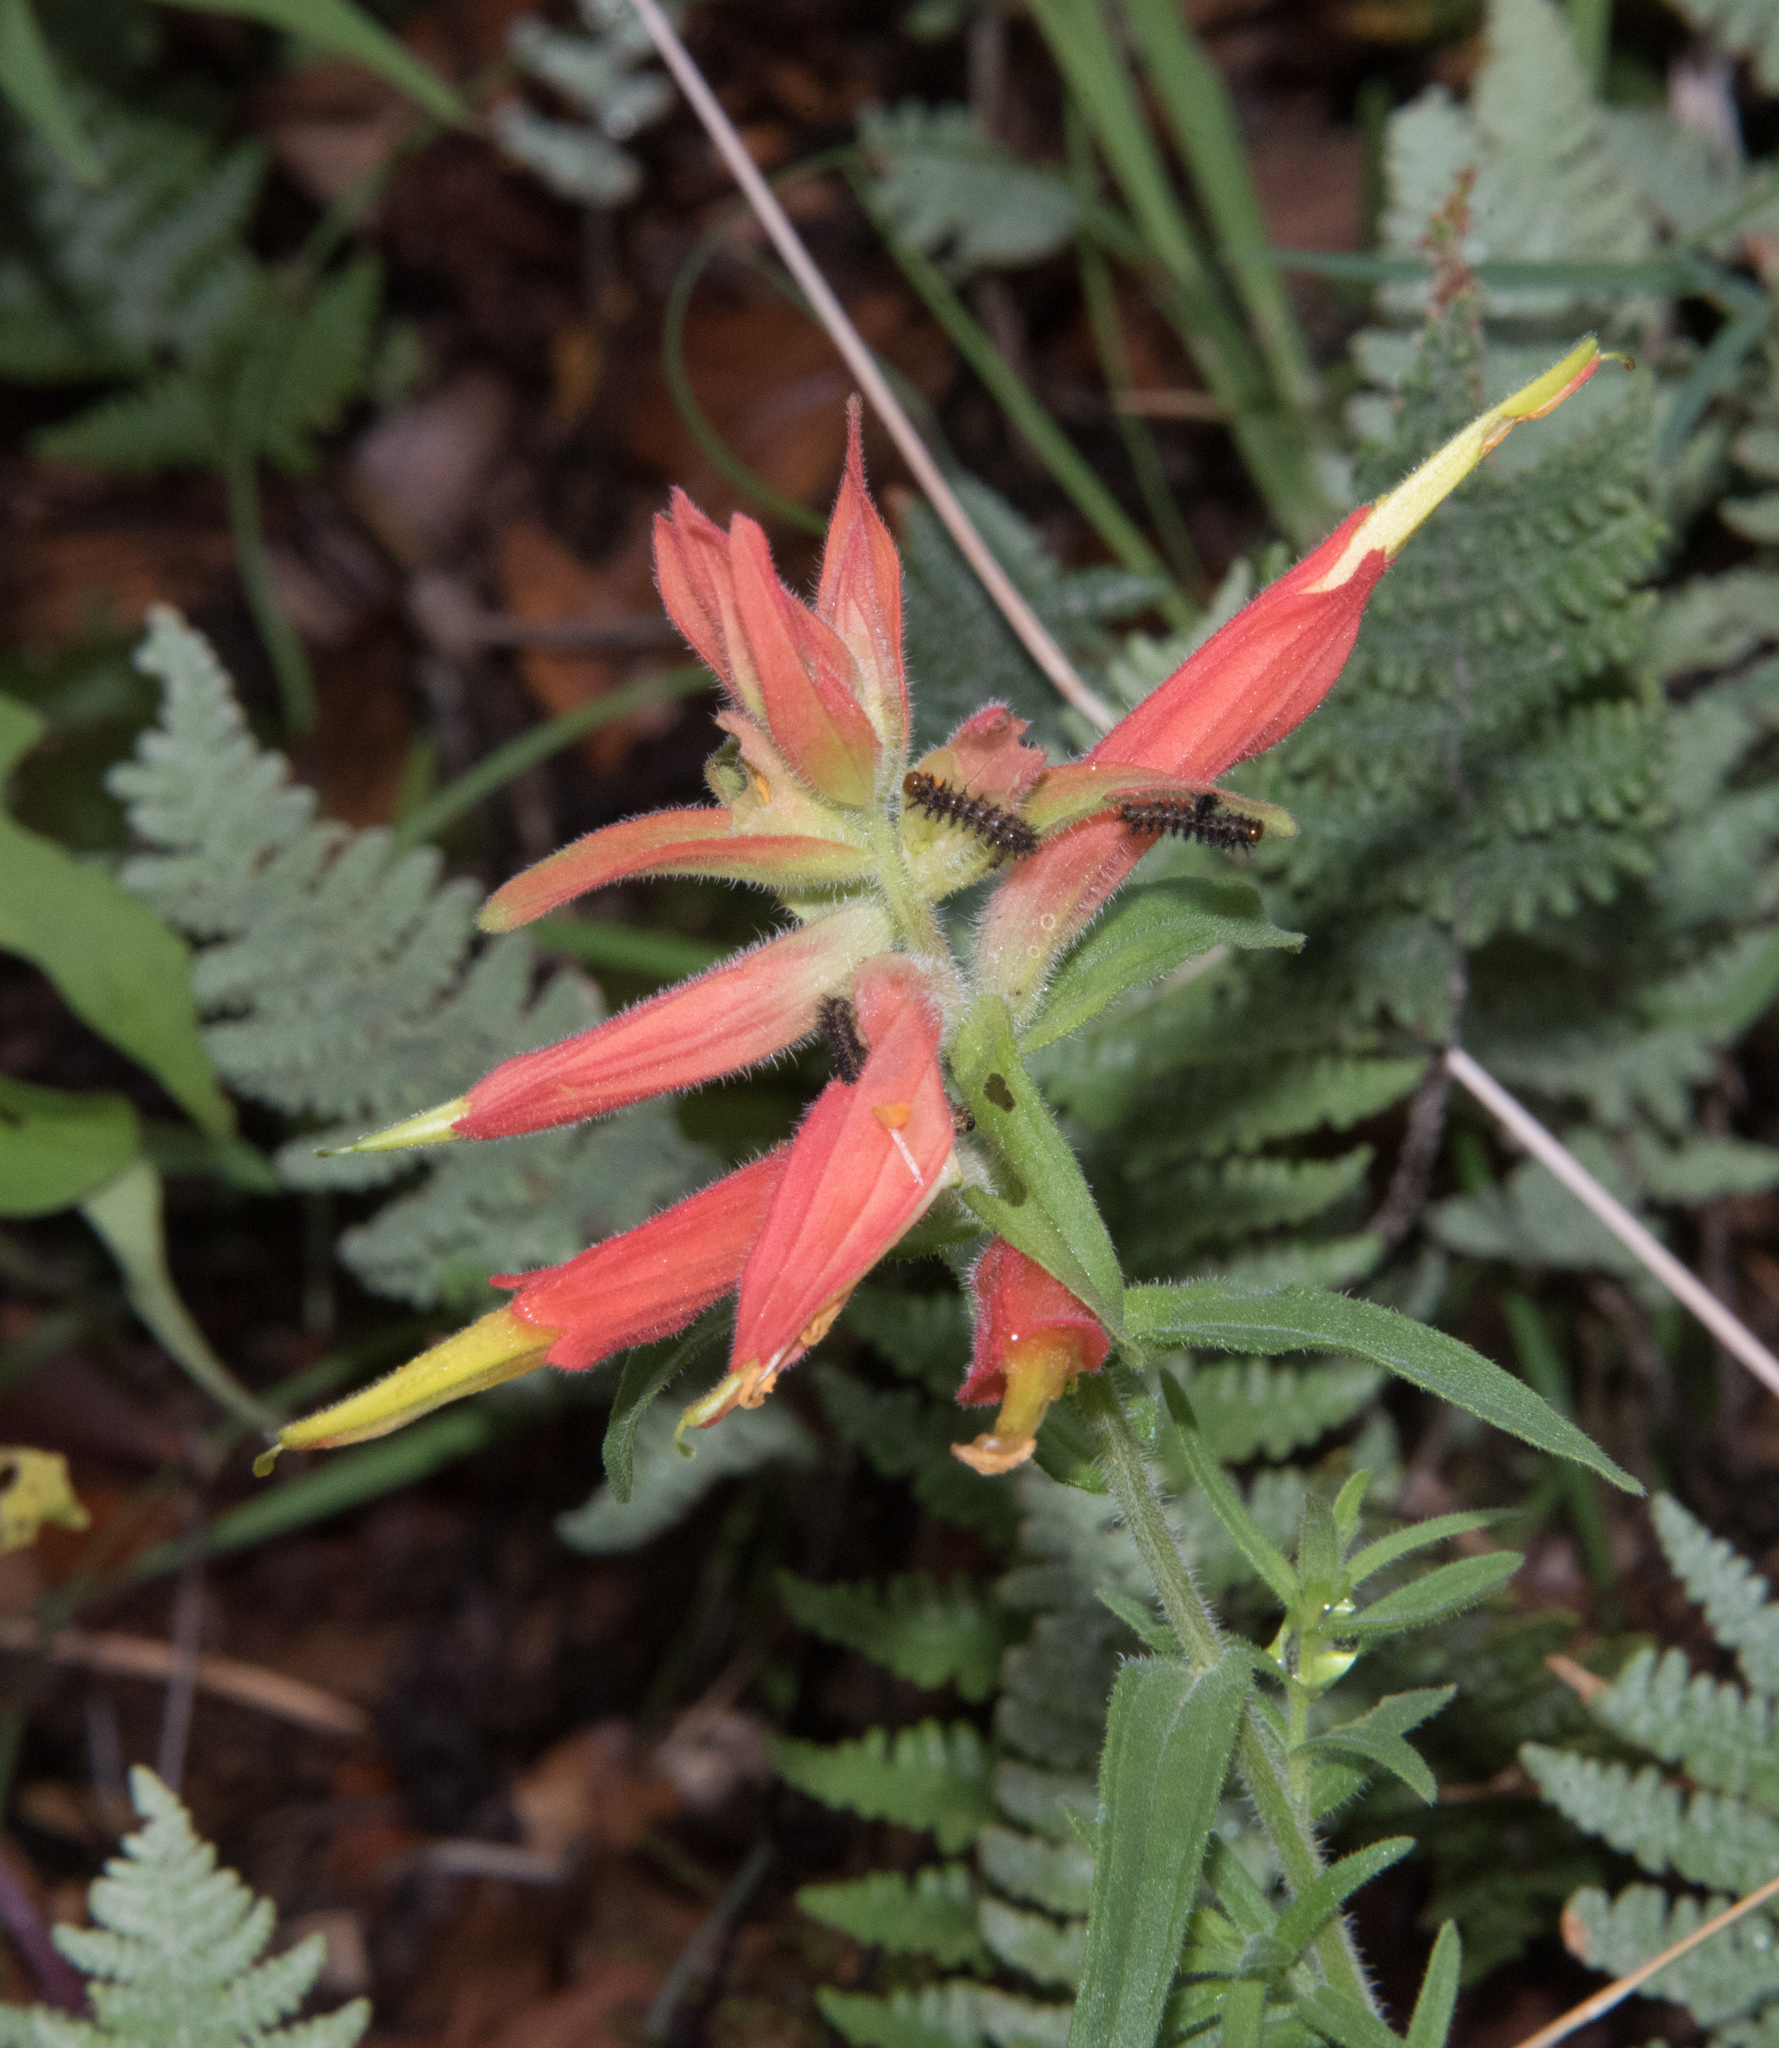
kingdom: Plantae
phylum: Tracheophyta
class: Magnoliopsida
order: Lamiales
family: Orobanchaceae
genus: Castilleja
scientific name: Castilleja tenuiflora
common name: Santa catalina indian paintbrush
